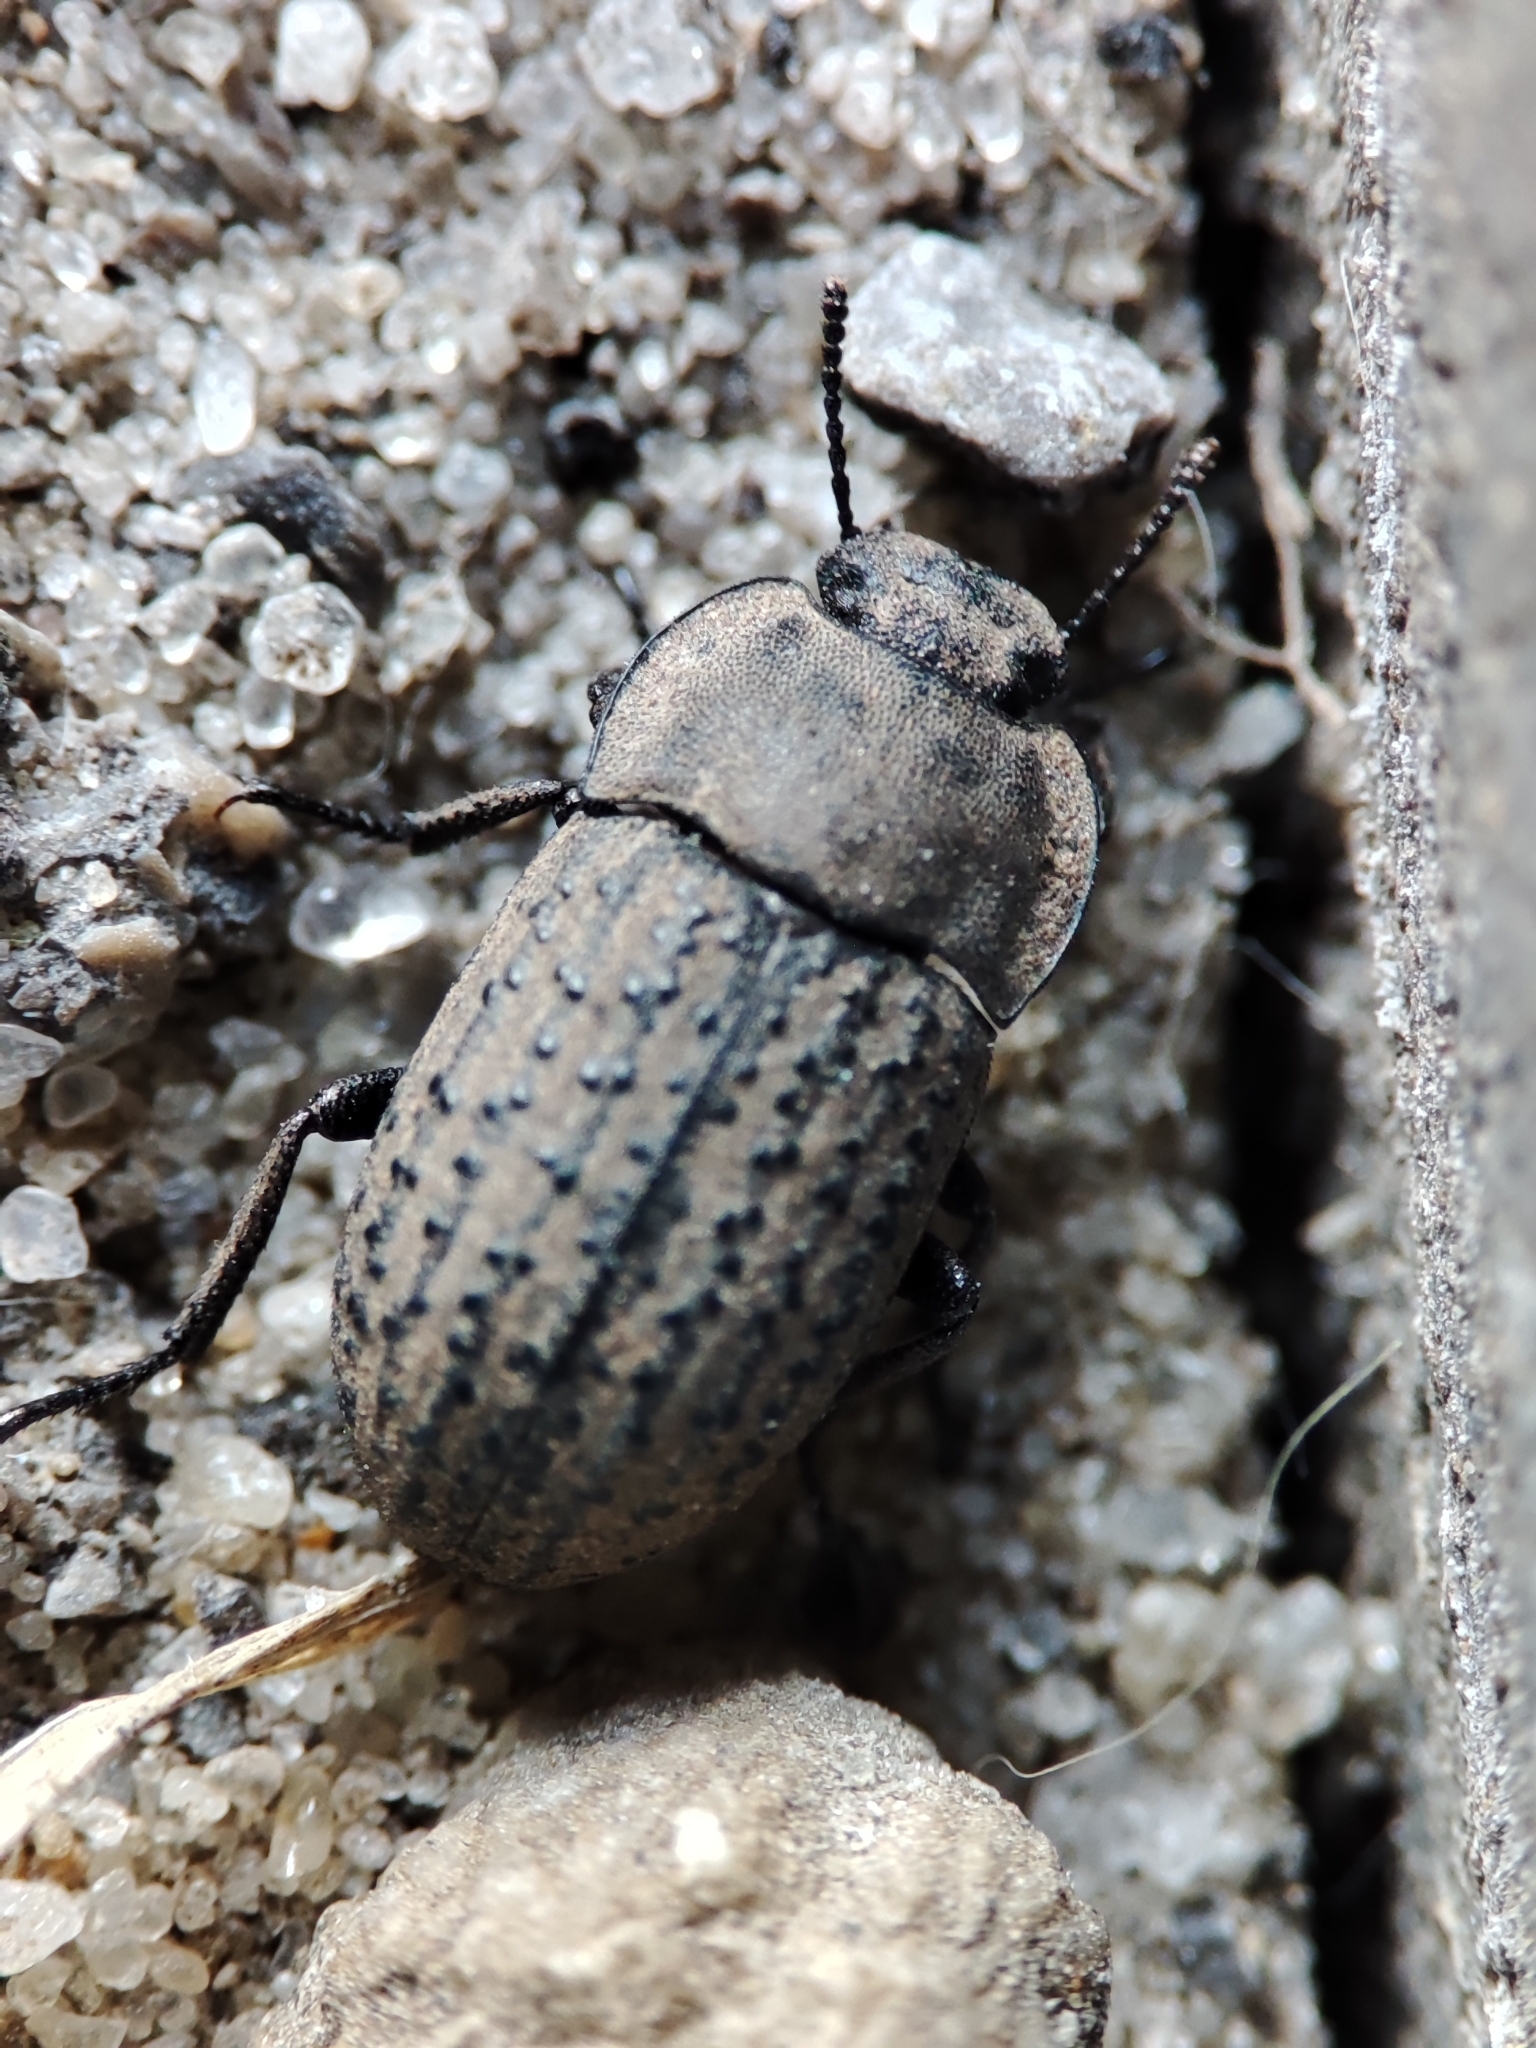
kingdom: Animalia
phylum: Arthropoda
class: Insecta
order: Coleoptera
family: Tenebrionidae
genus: Opatrum
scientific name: Opatrum sabulosum
